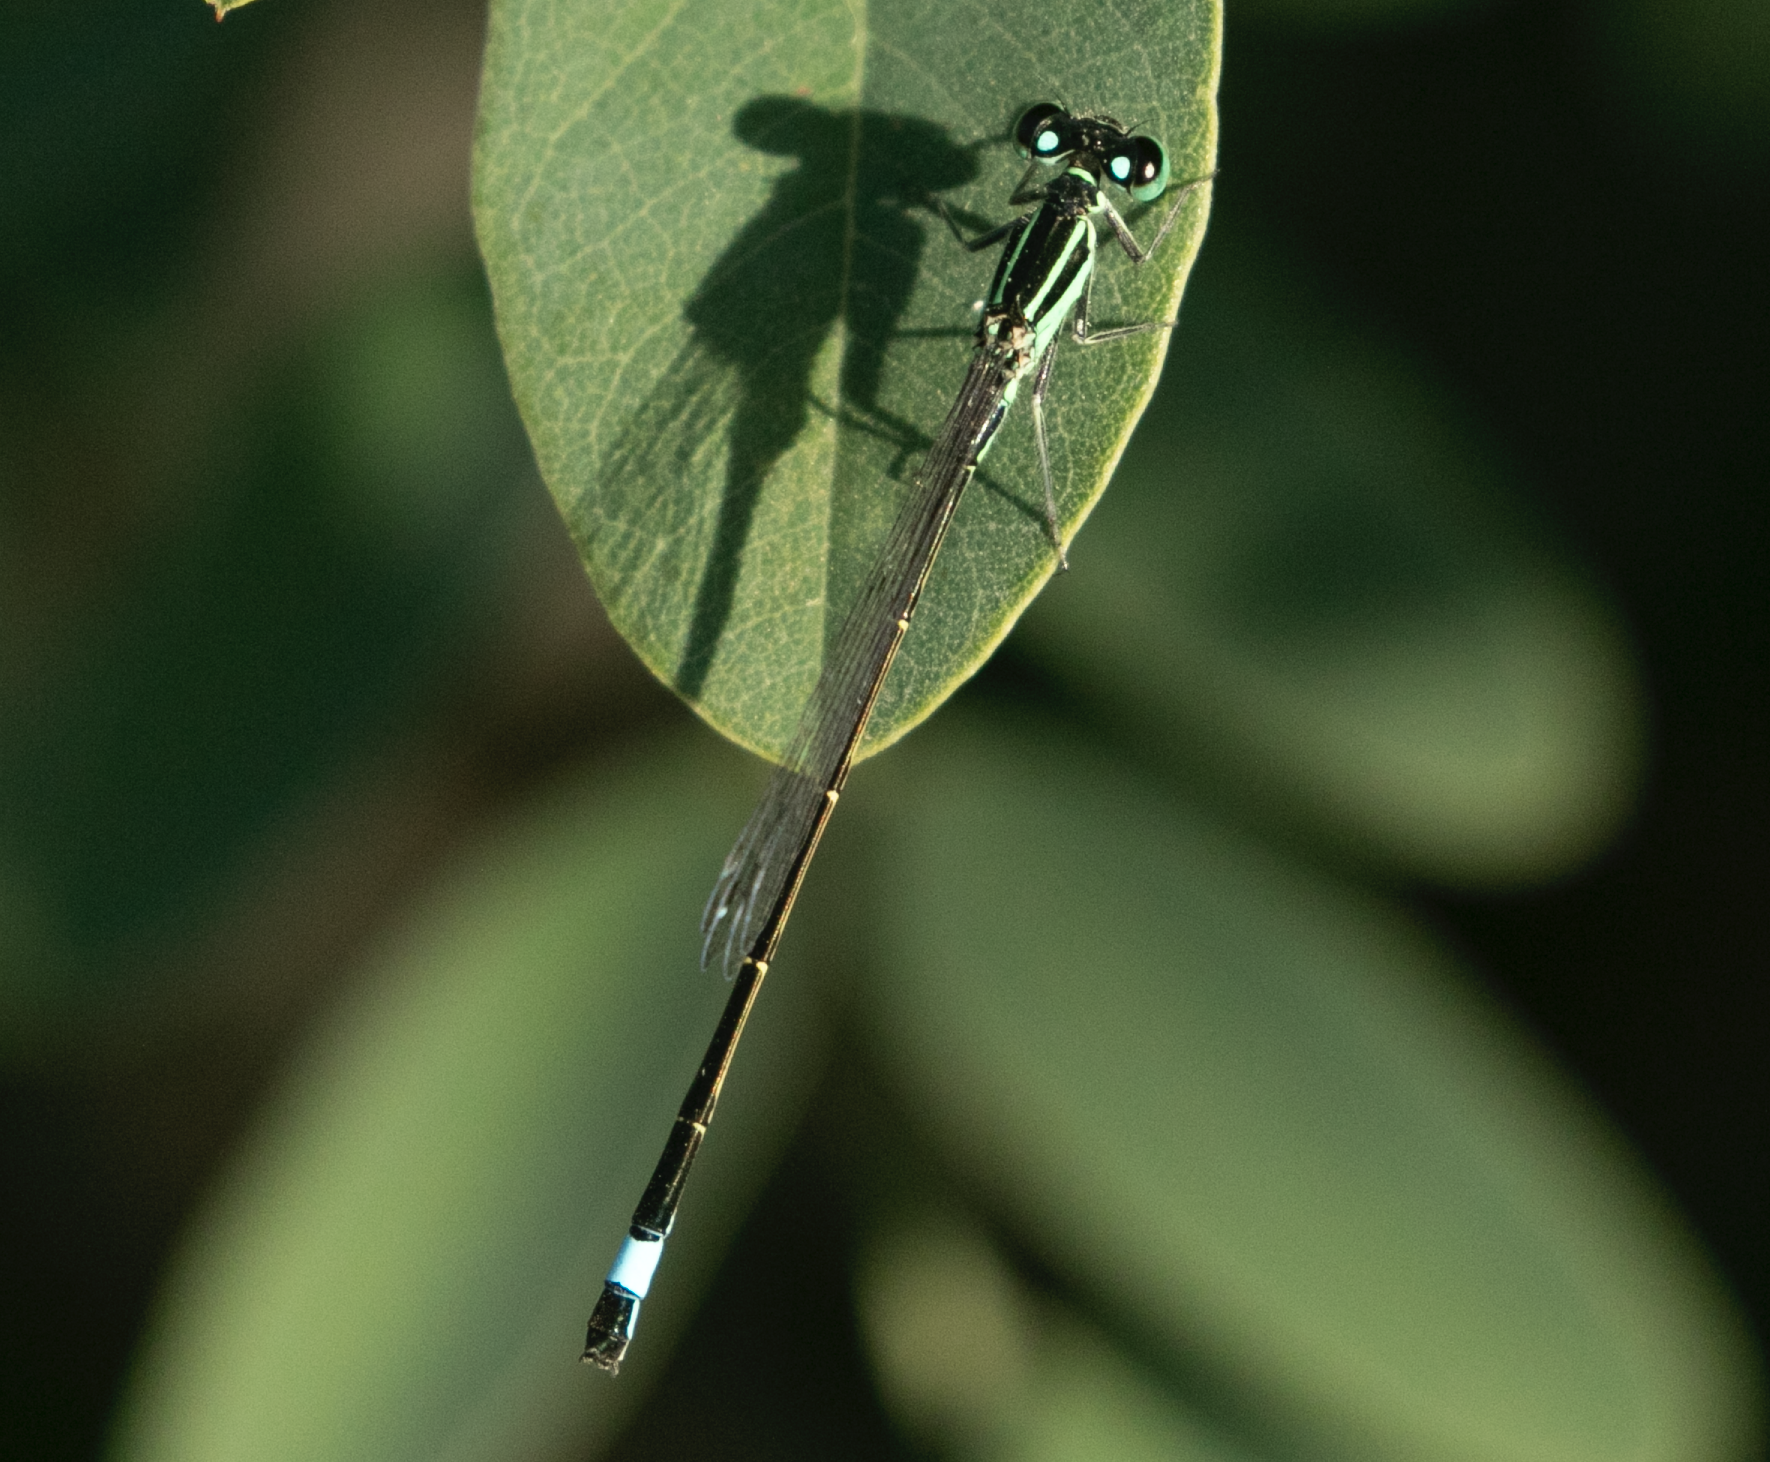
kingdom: Animalia
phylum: Arthropoda
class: Insecta
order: Odonata
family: Coenagrionidae
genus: Ischnura
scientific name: Ischnura elegans
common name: Blue-tailed damselfly
